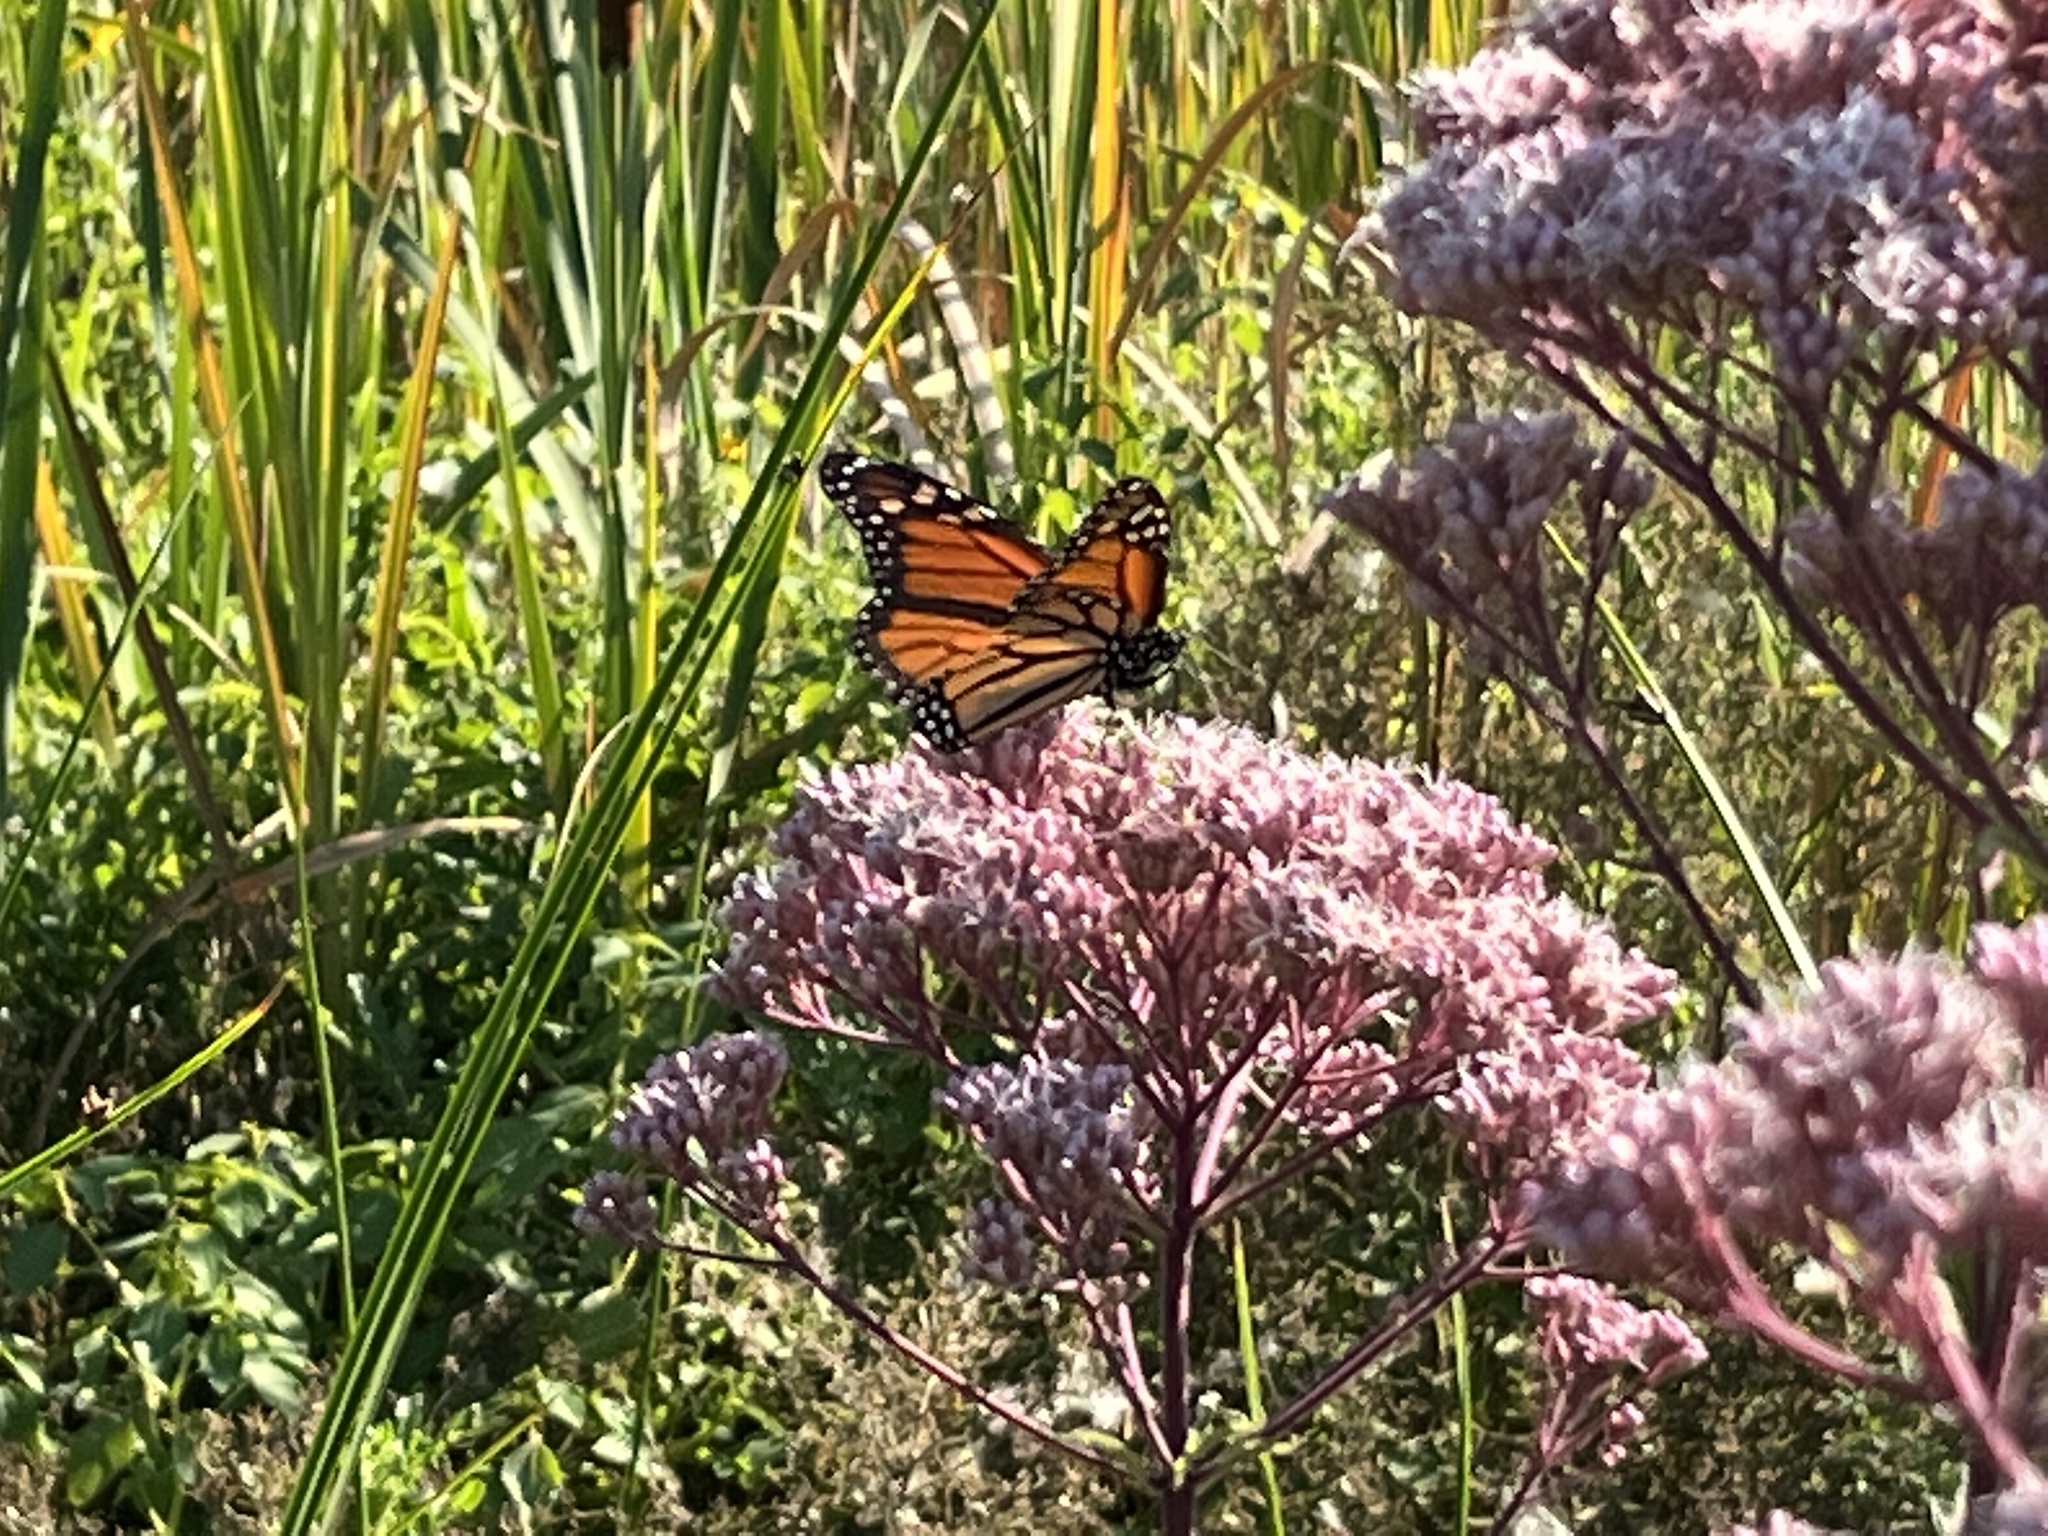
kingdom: Animalia
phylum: Arthropoda
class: Insecta
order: Lepidoptera
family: Nymphalidae
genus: Danaus
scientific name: Danaus plexippus
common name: Monarch
